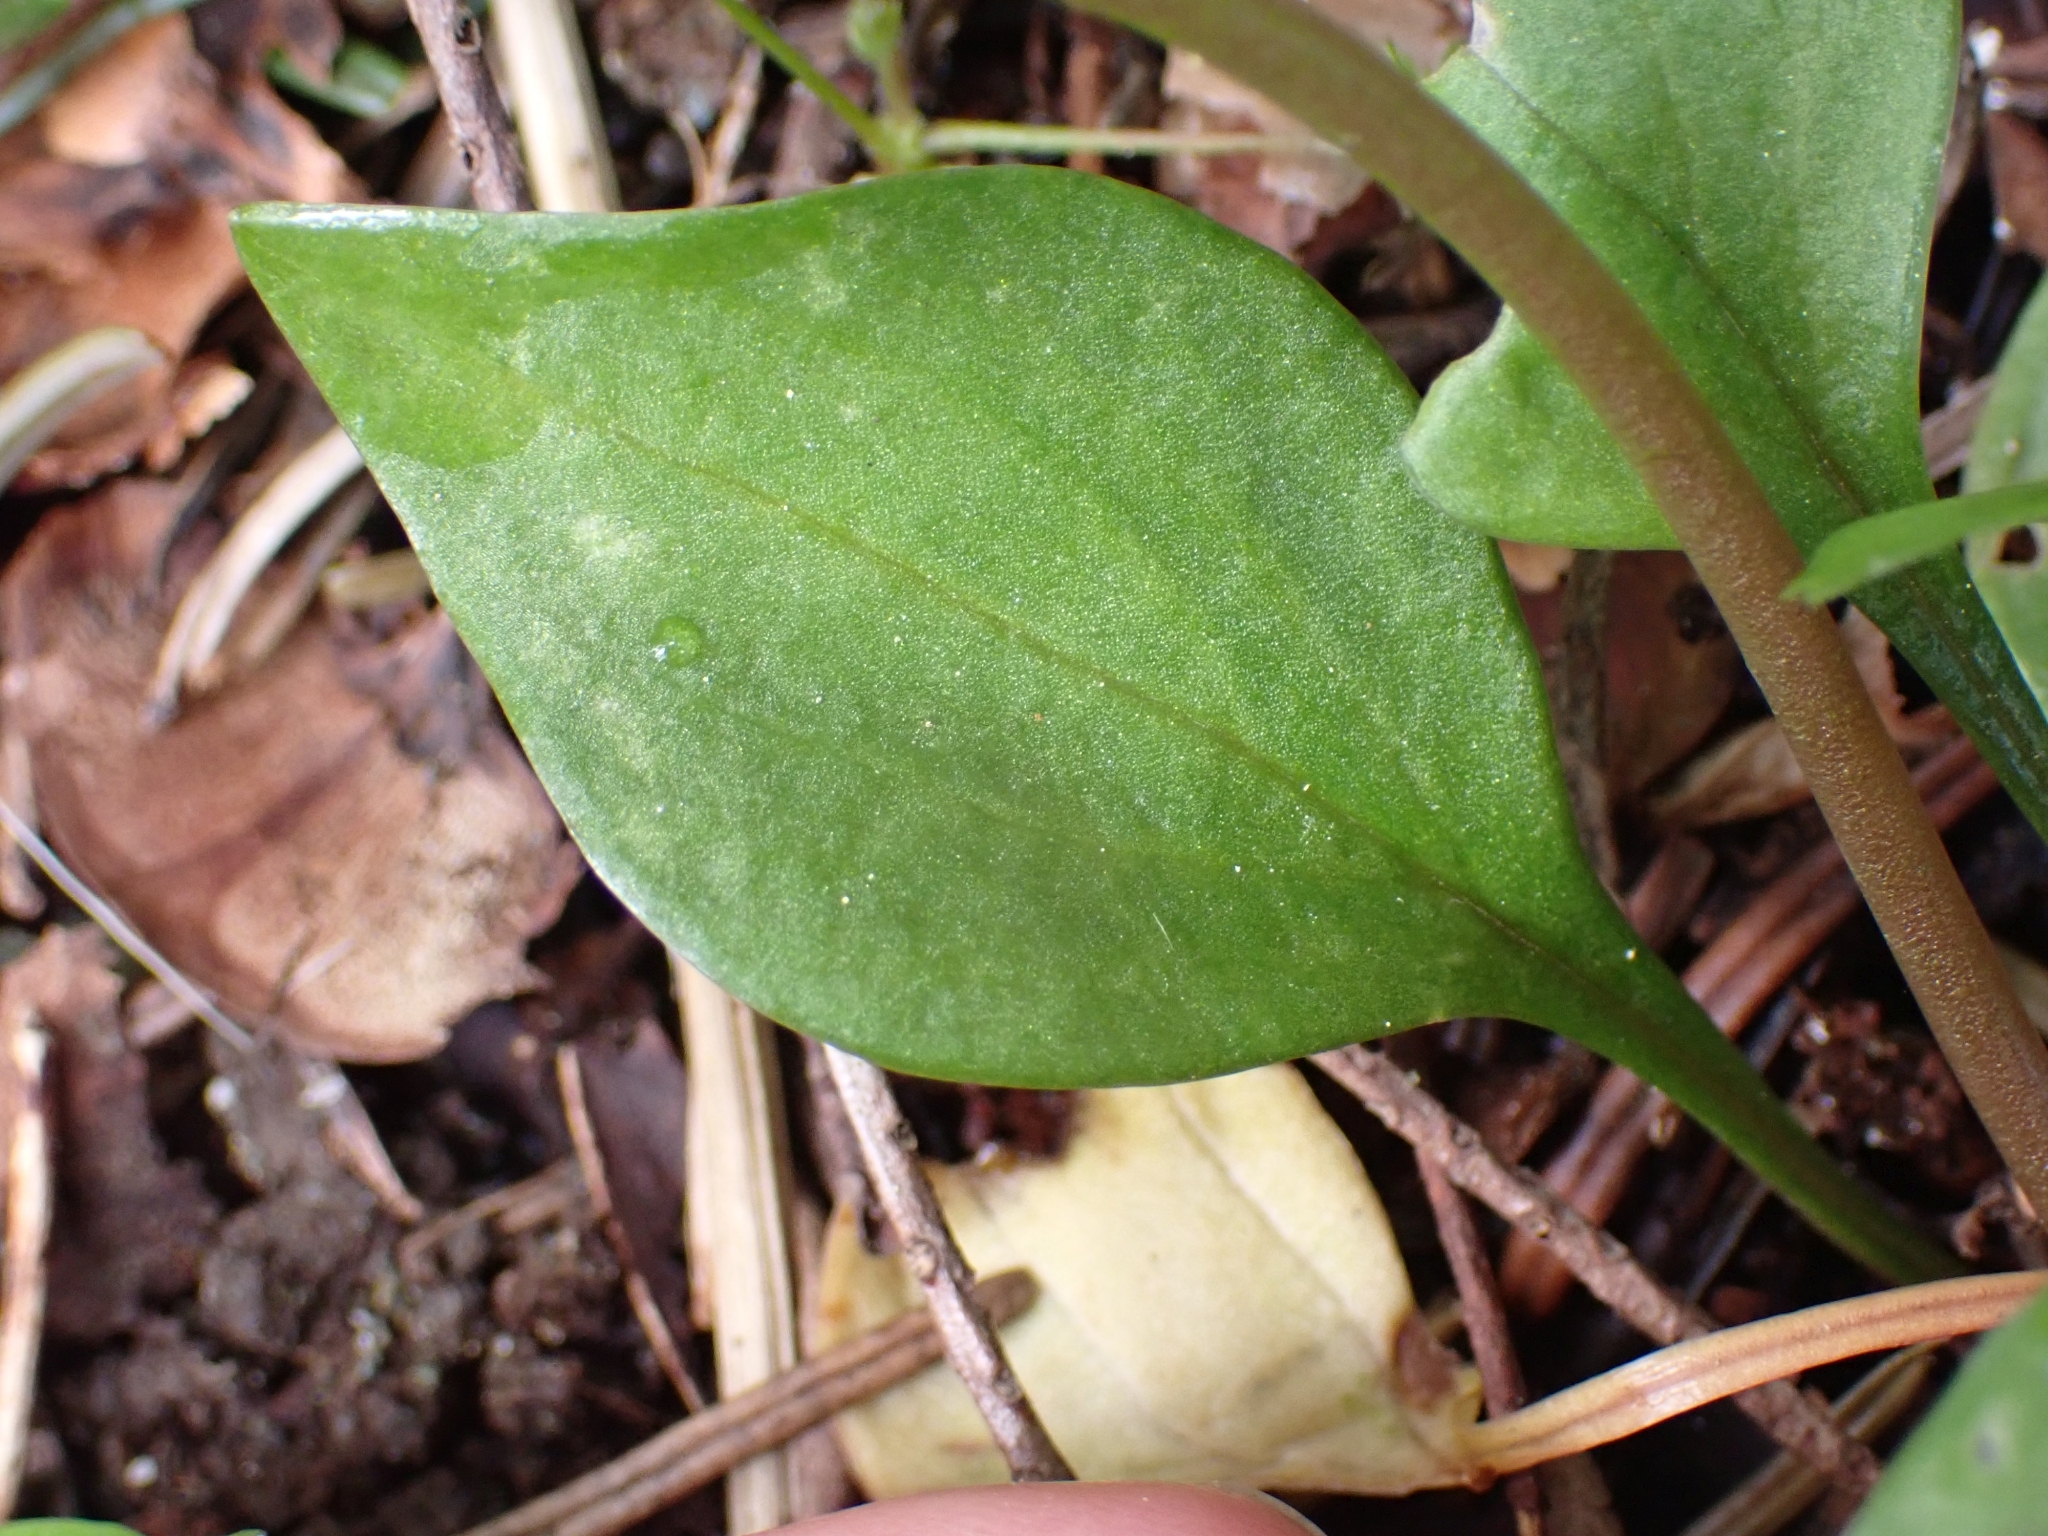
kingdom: Plantae
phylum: Tracheophyta
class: Magnoliopsida
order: Caryophyllales
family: Montiaceae
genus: Claytonia
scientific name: Claytonia sibirica
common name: Pink purslane
